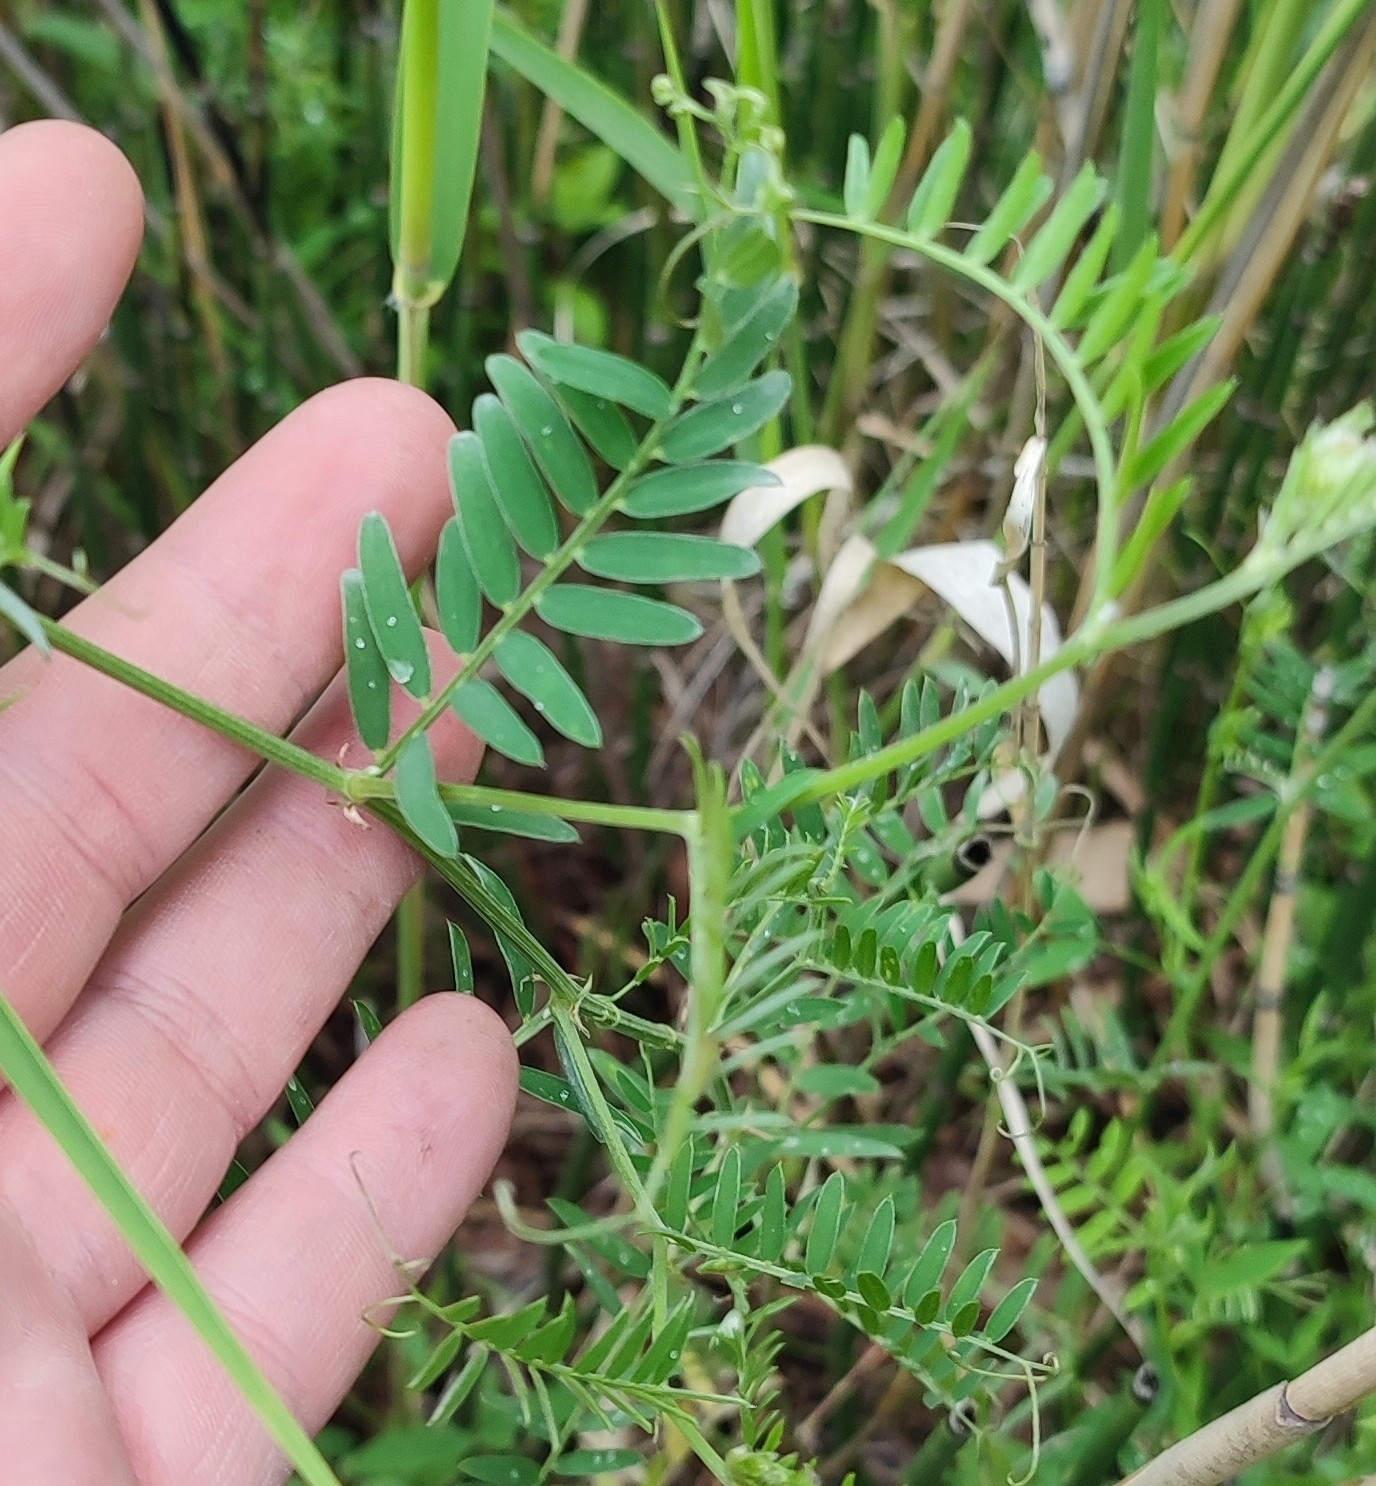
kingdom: Plantae
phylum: Tracheophyta
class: Magnoliopsida
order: Fabales
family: Fabaceae
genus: Vicia
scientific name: Vicia cracca
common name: Bird vetch
